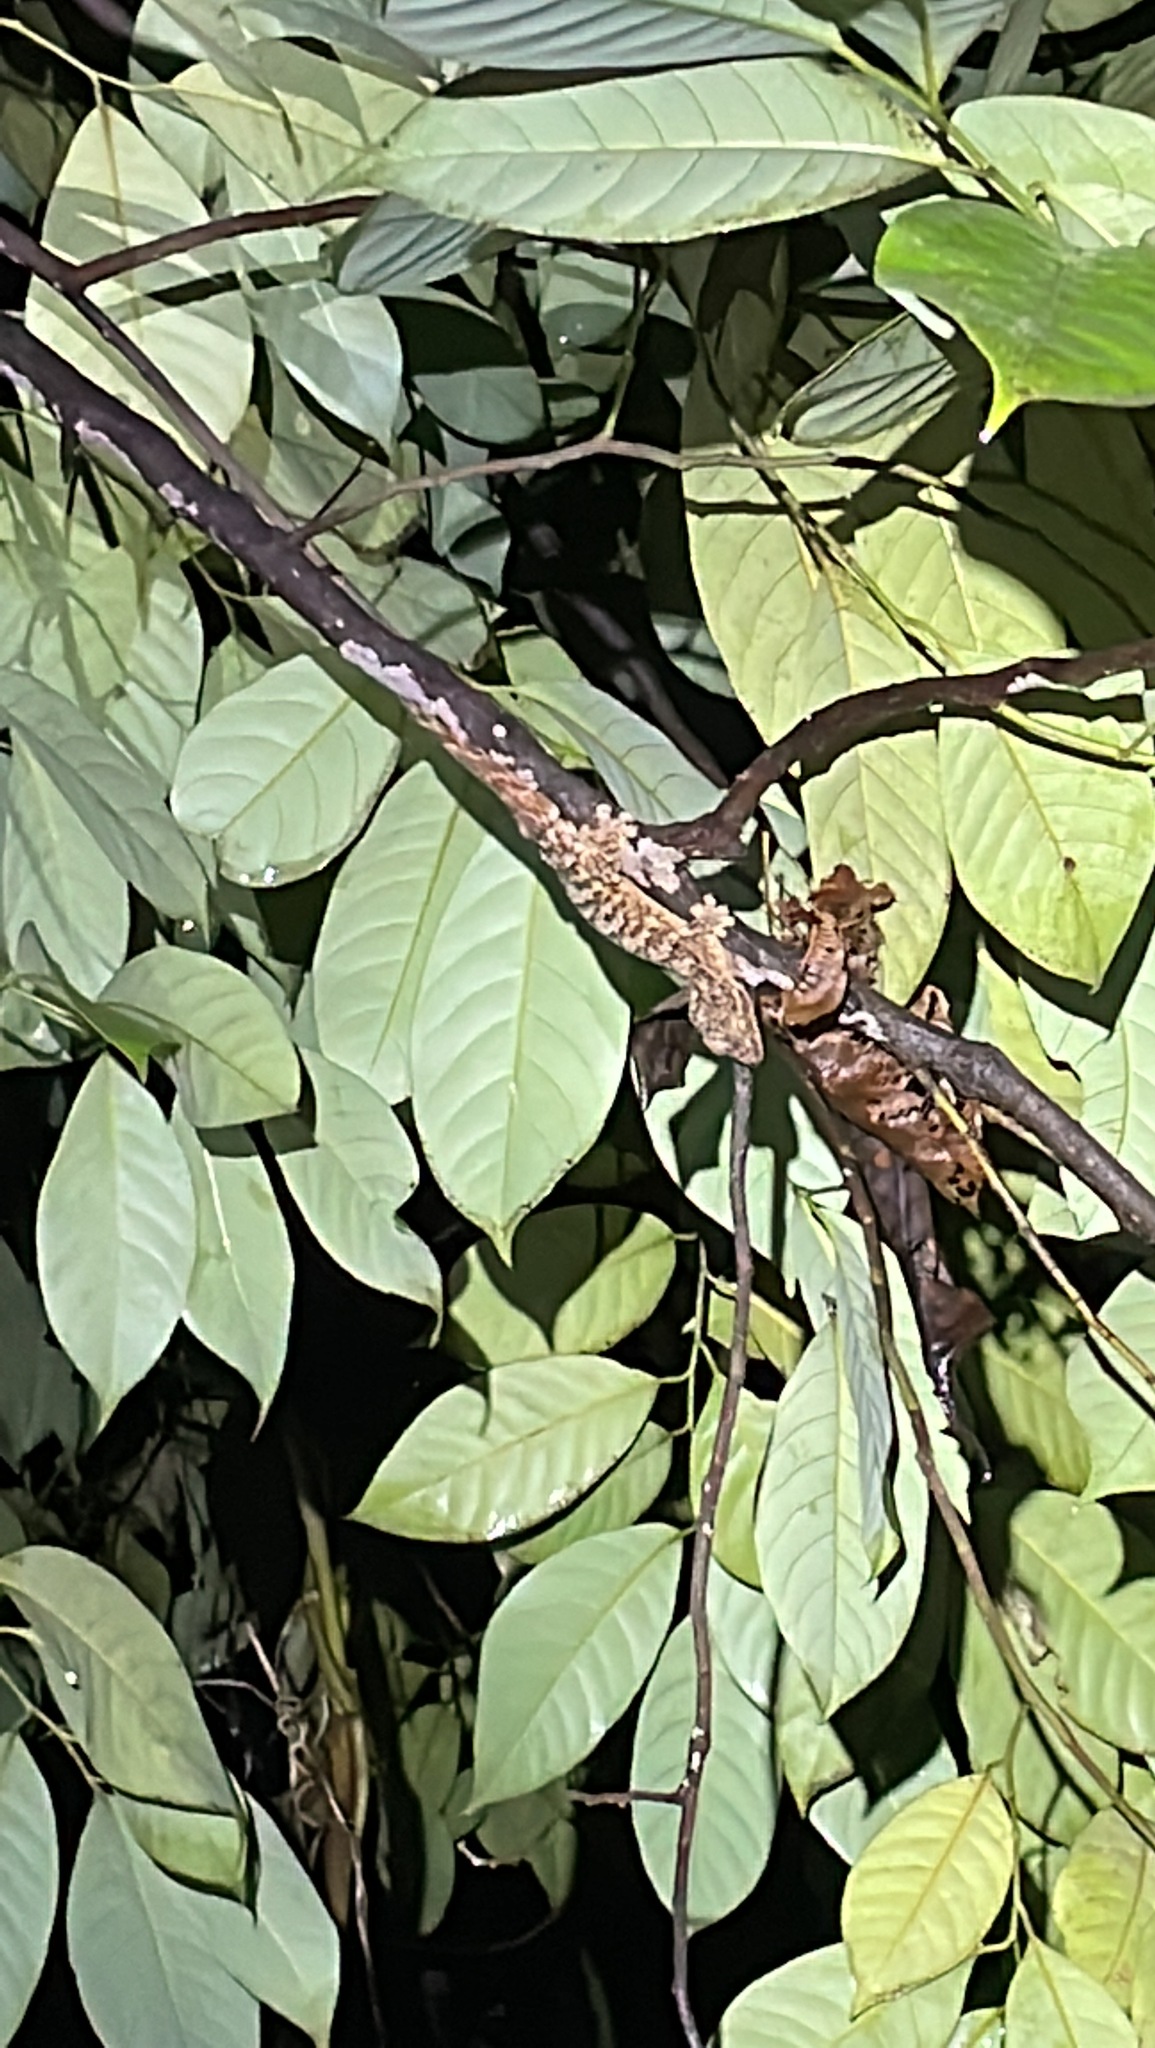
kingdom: Animalia
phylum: Chordata
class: Squamata
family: Phyllodactylidae
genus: Thecadactylus
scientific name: Thecadactylus rapicauda
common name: Turnip-tailed gecko
